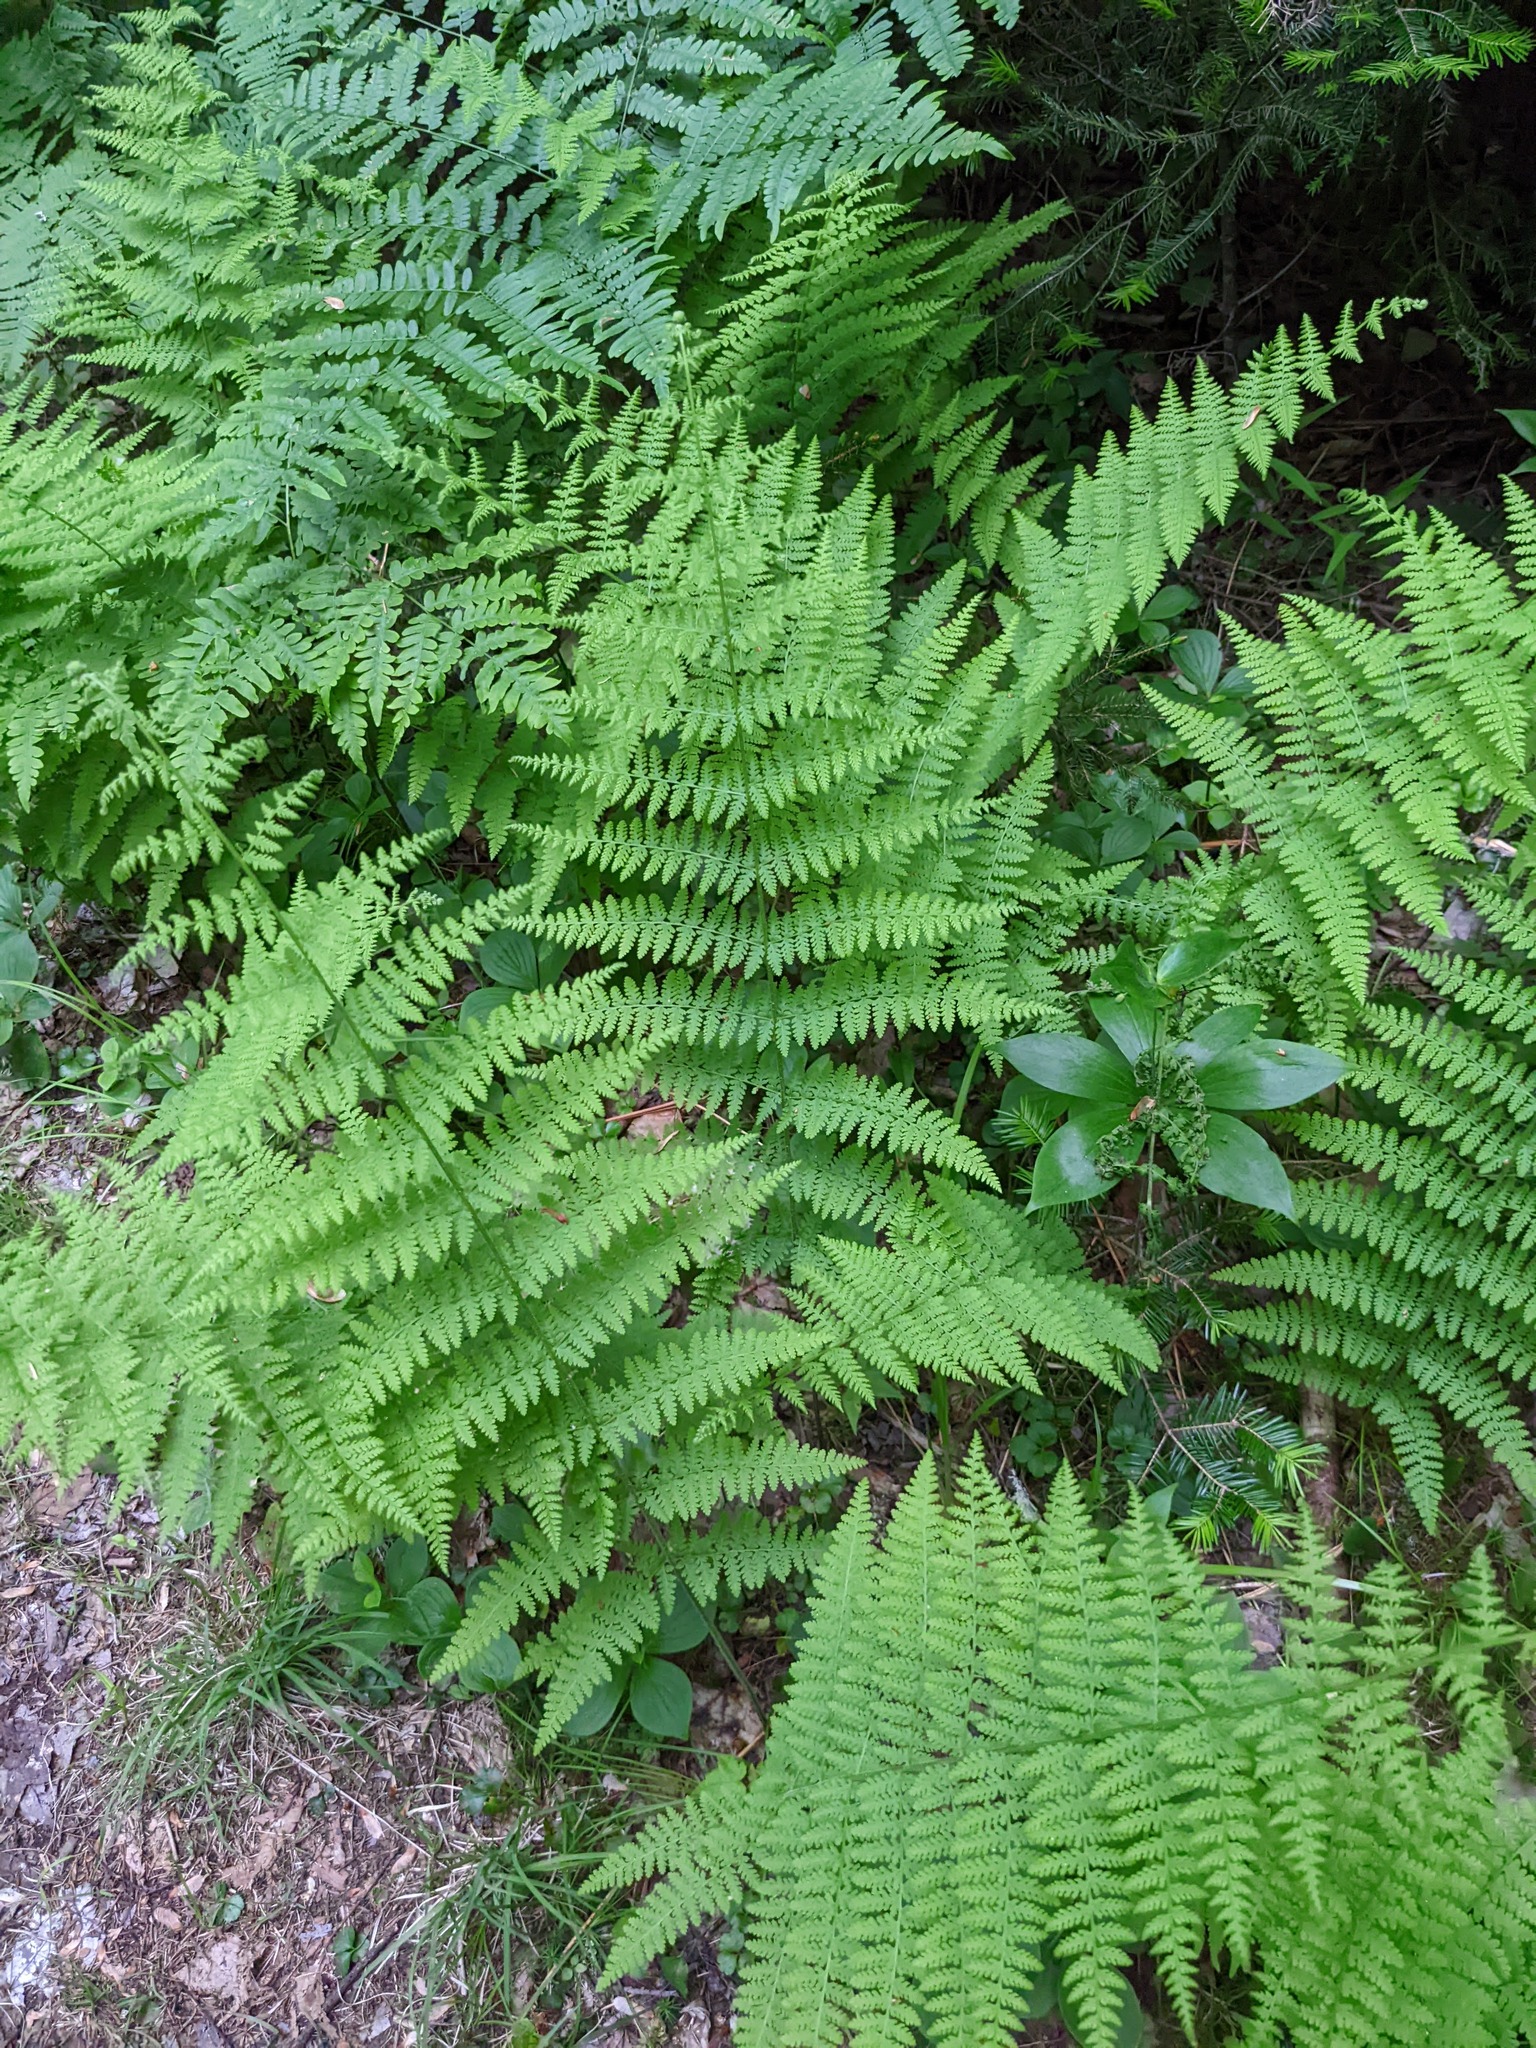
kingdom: Plantae
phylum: Tracheophyta
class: Polypodiopsida
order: Polypodiales
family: Dennstaedtiaceae
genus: Sitobolium
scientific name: Sitobolium punctilobum
